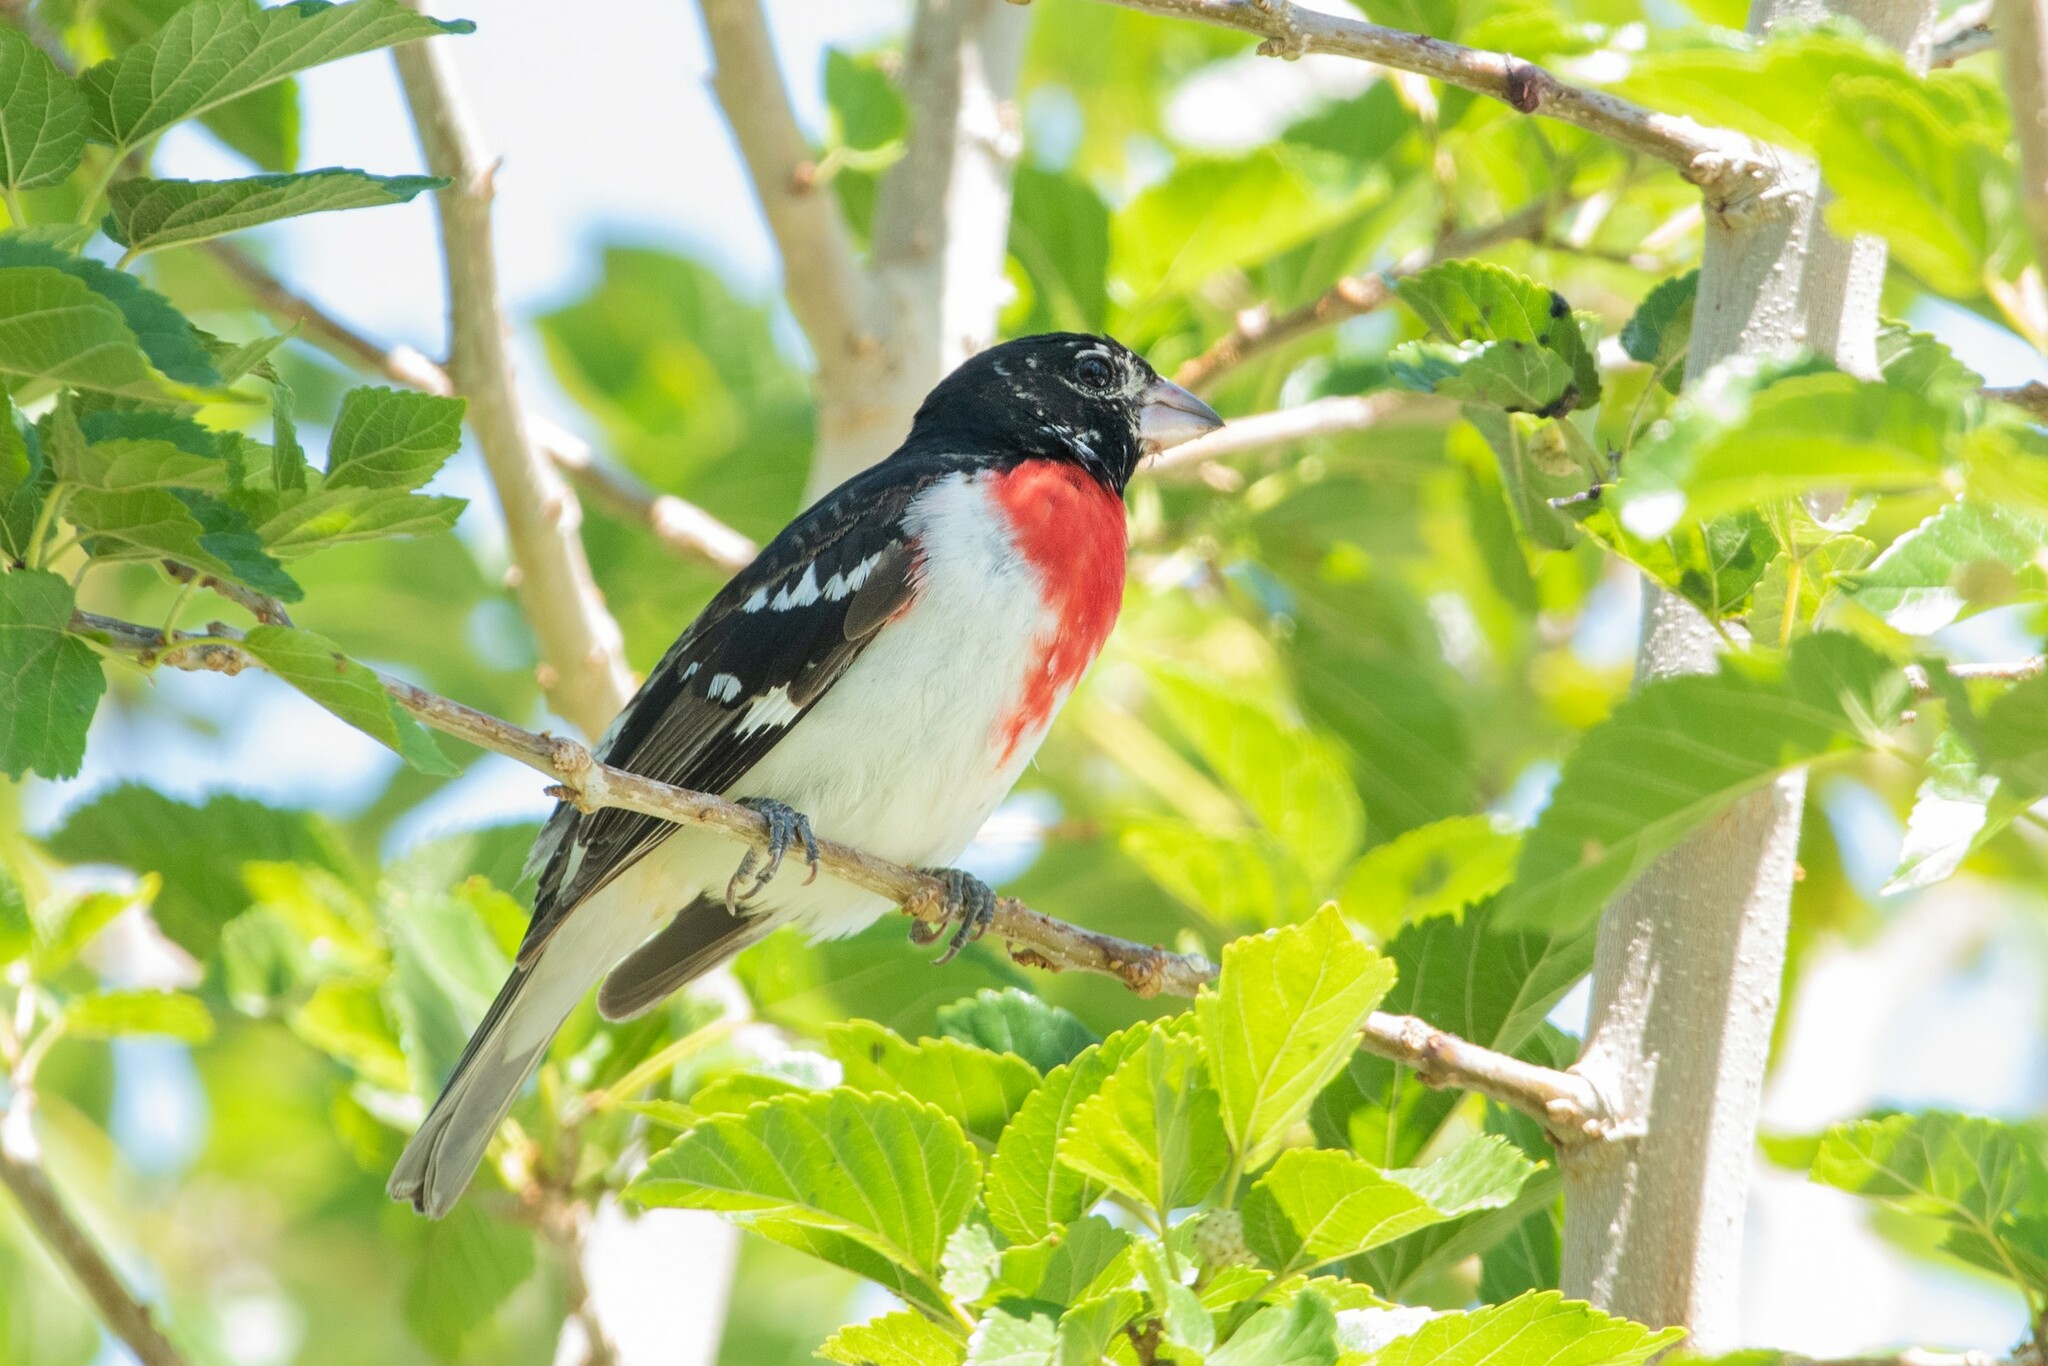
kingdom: Animalia
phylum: Chordata
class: Aves
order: Passeriformes
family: Cardinalidae
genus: Pheucticus
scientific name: Pheucticus ludovicianus
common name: Rose-breasted grosbeak
